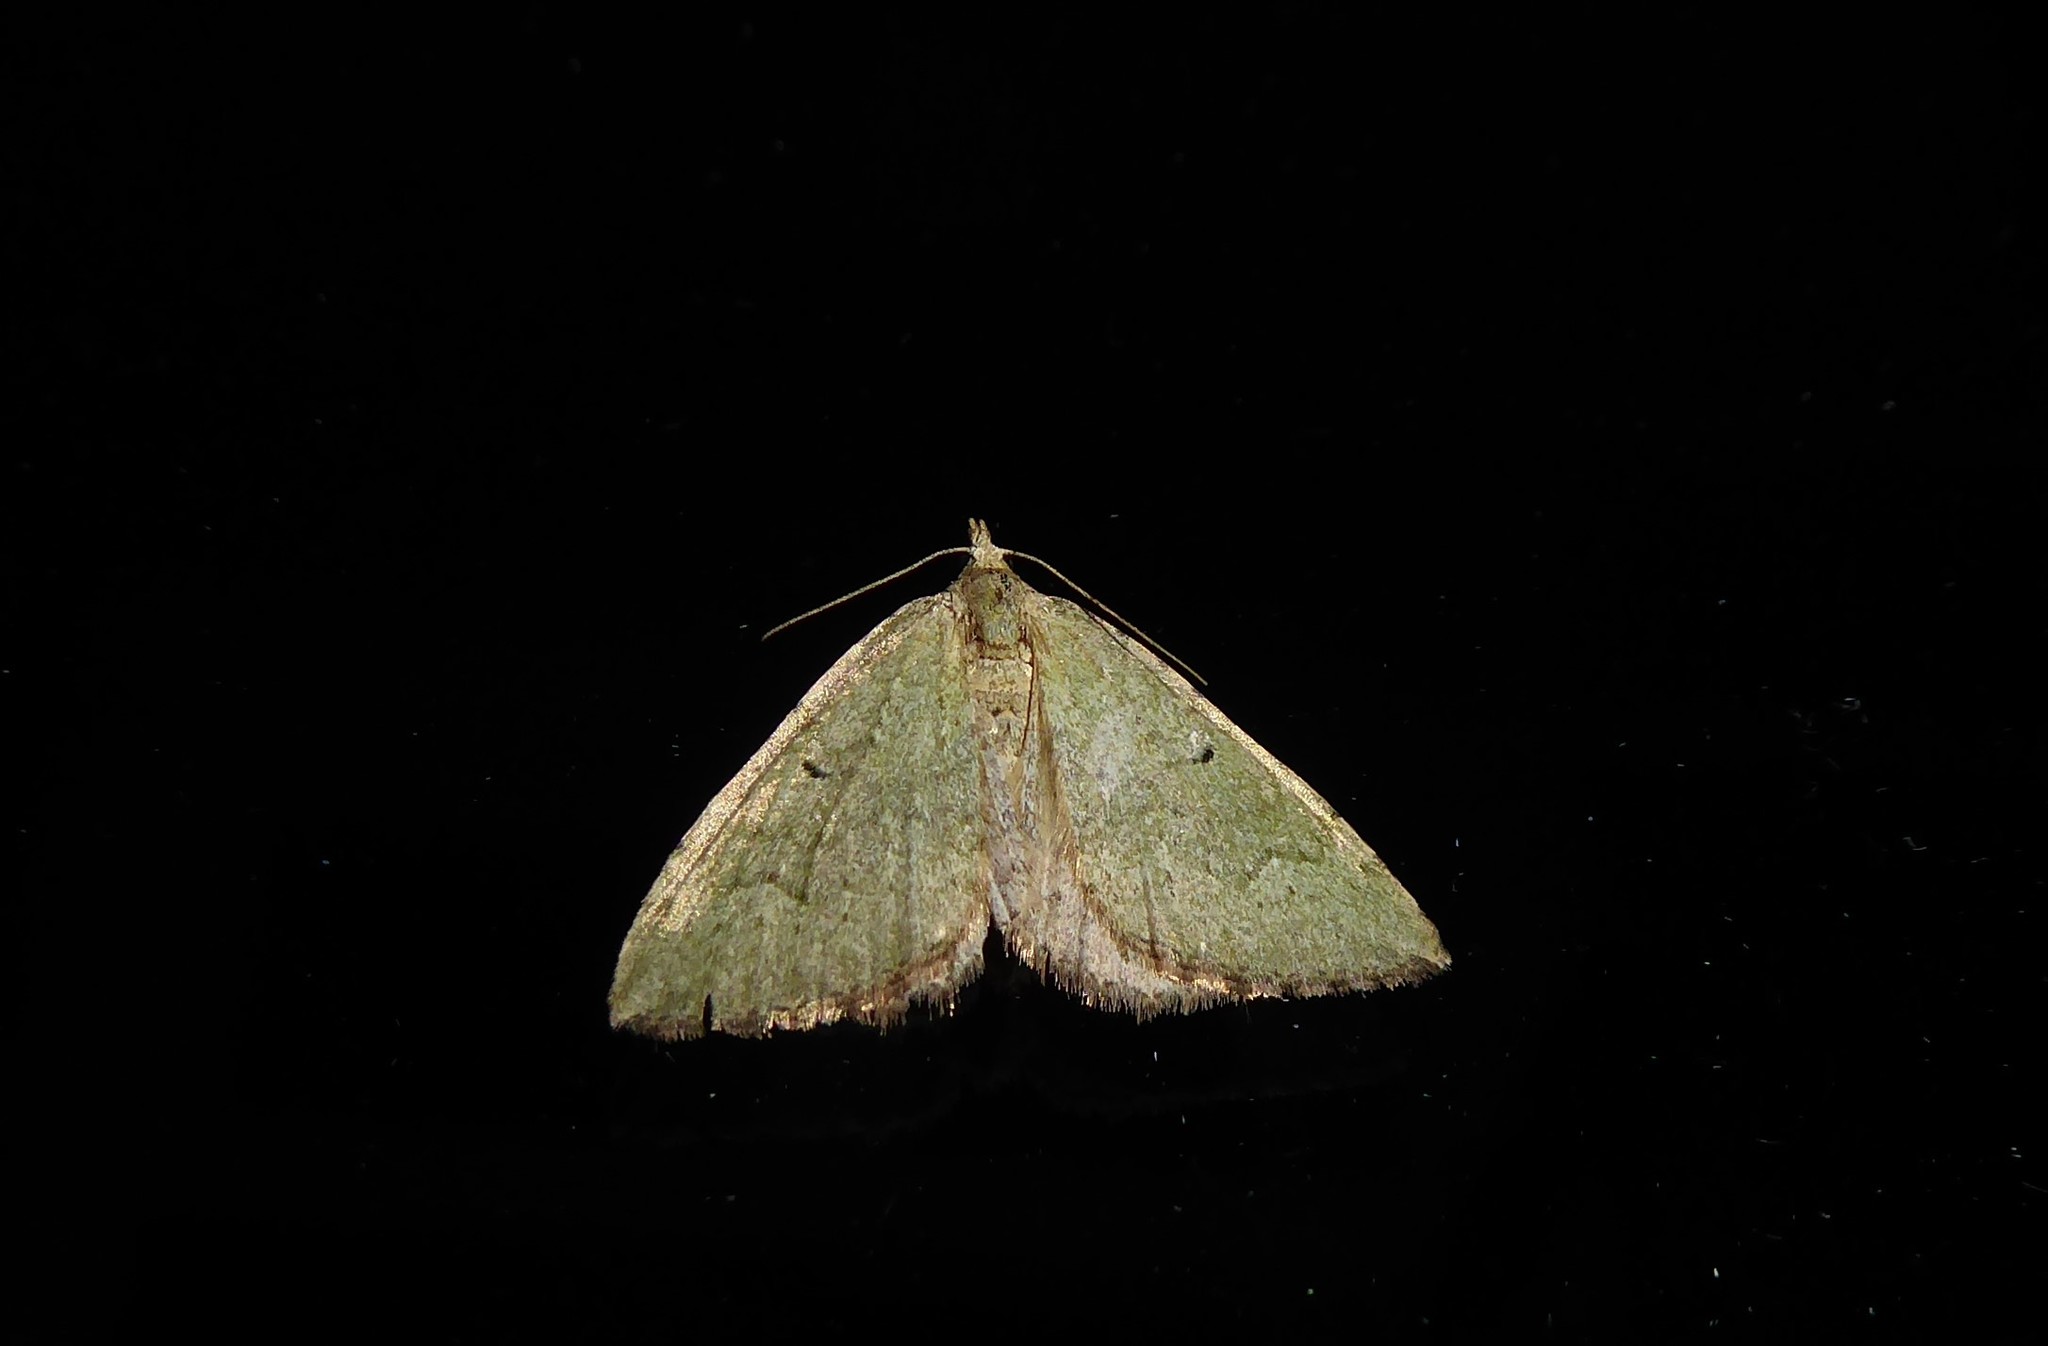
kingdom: Animalia
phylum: Arthropoda
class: Insecta
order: Lepidoptera
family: Geometridae
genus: Epyaxa
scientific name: Epyaxa rosearia
